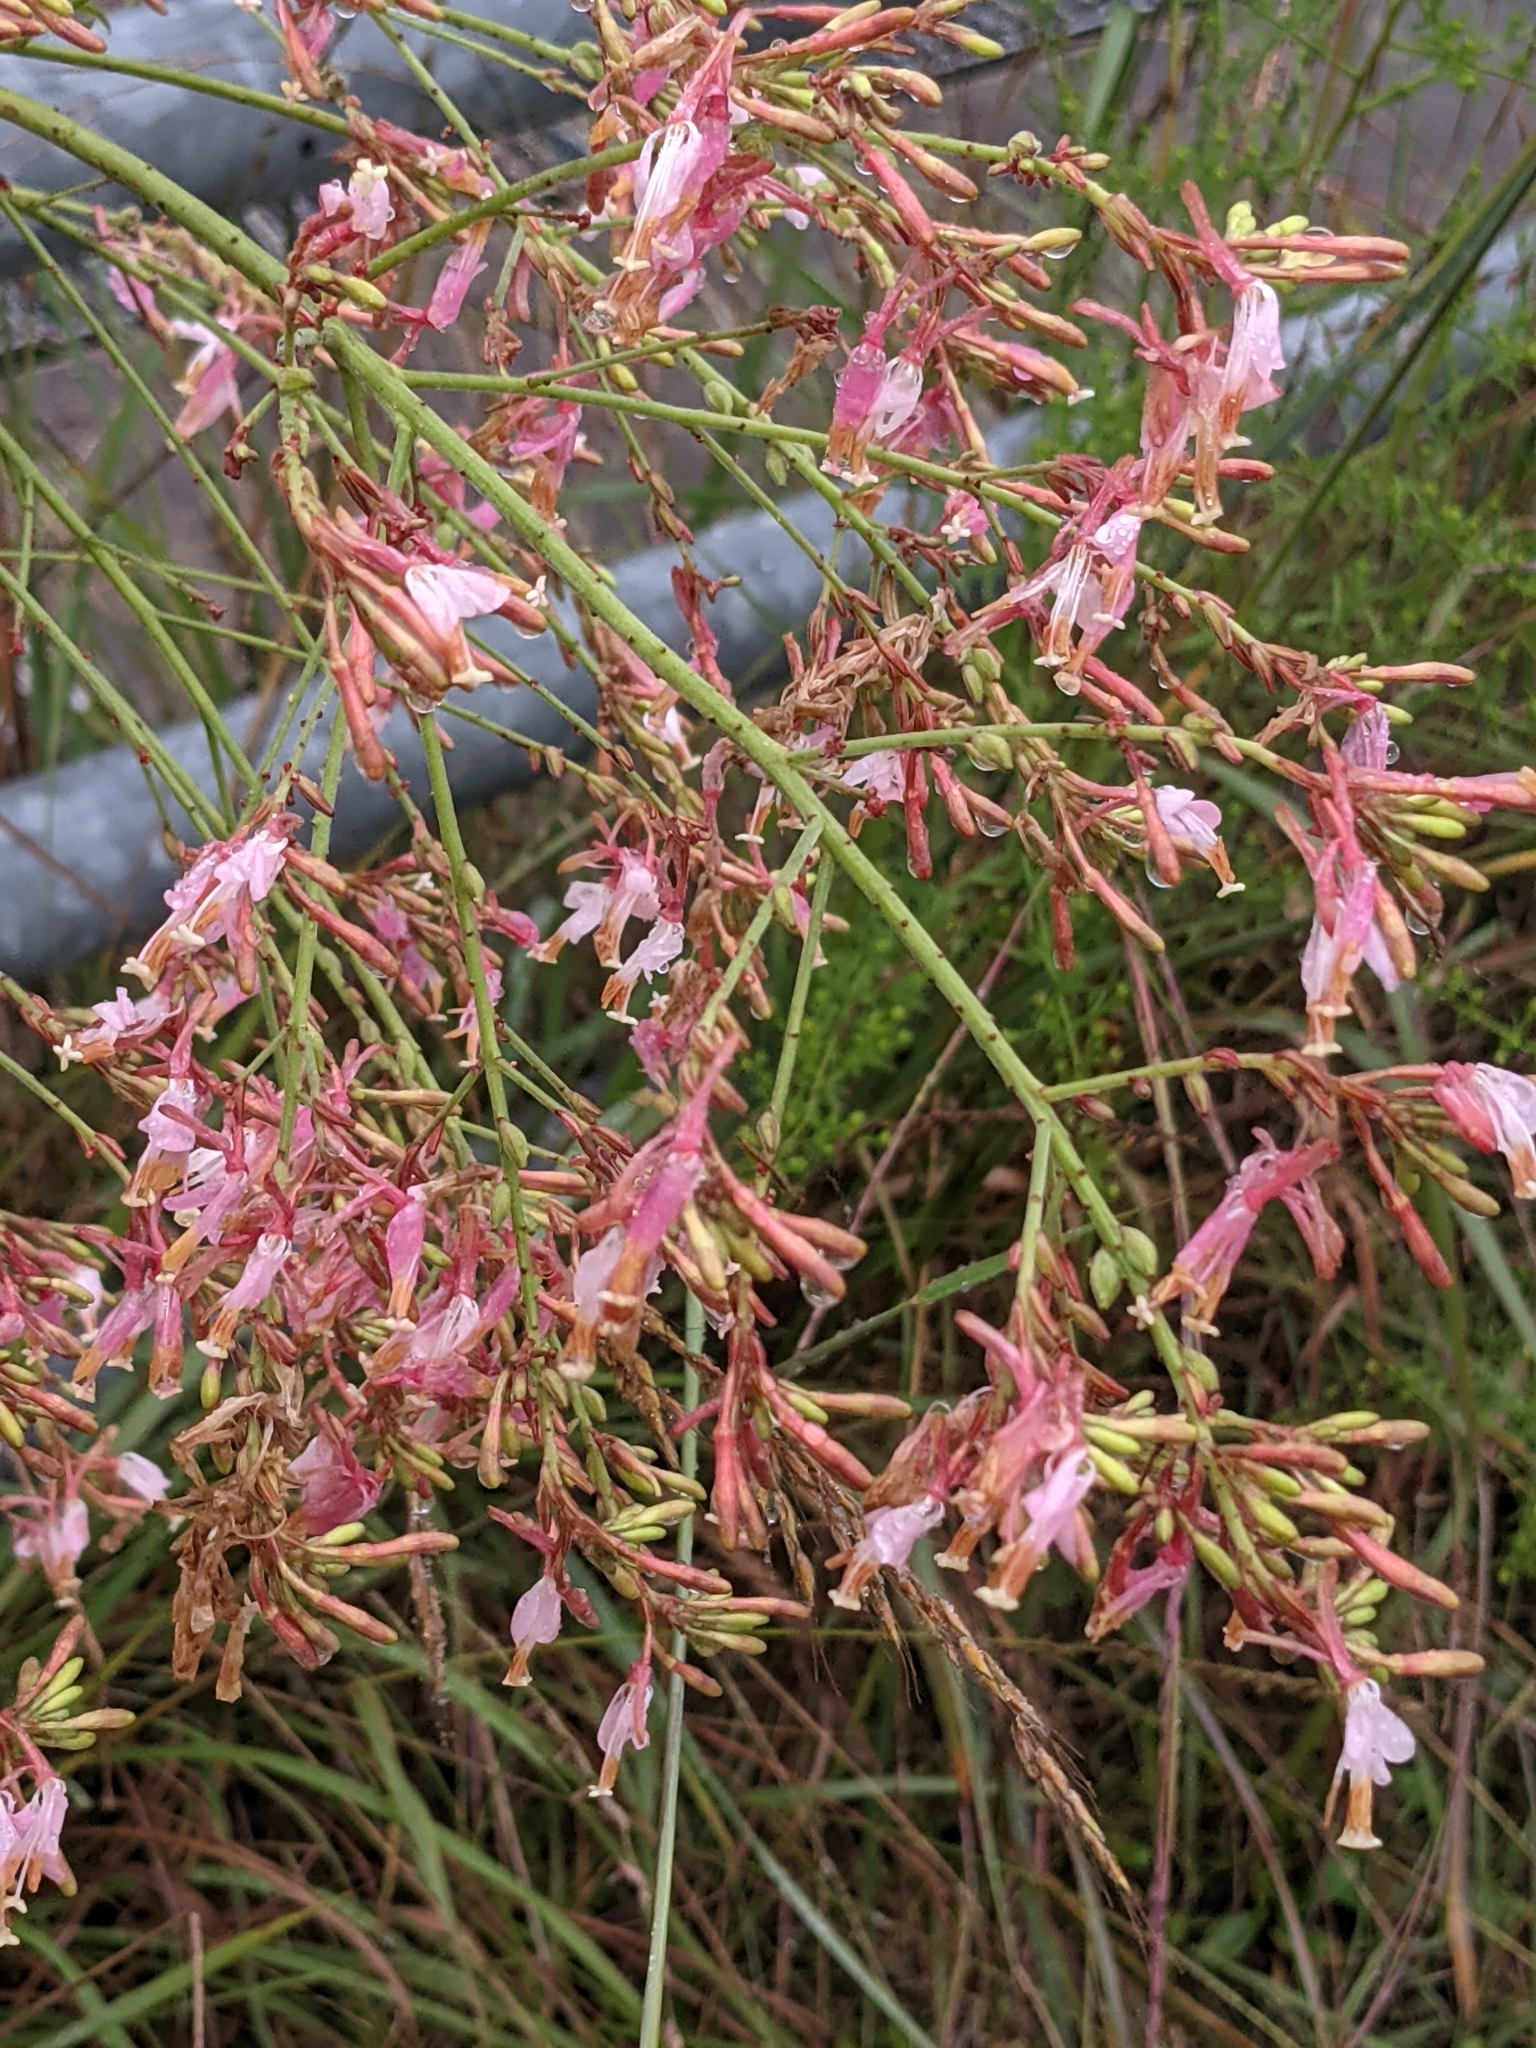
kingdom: Plantae
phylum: Tracheophyta
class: Magnoliopsida
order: Myrtales
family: Onagraceae
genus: Oenothera
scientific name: Oenothera gaura
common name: Biennial beeblossom
